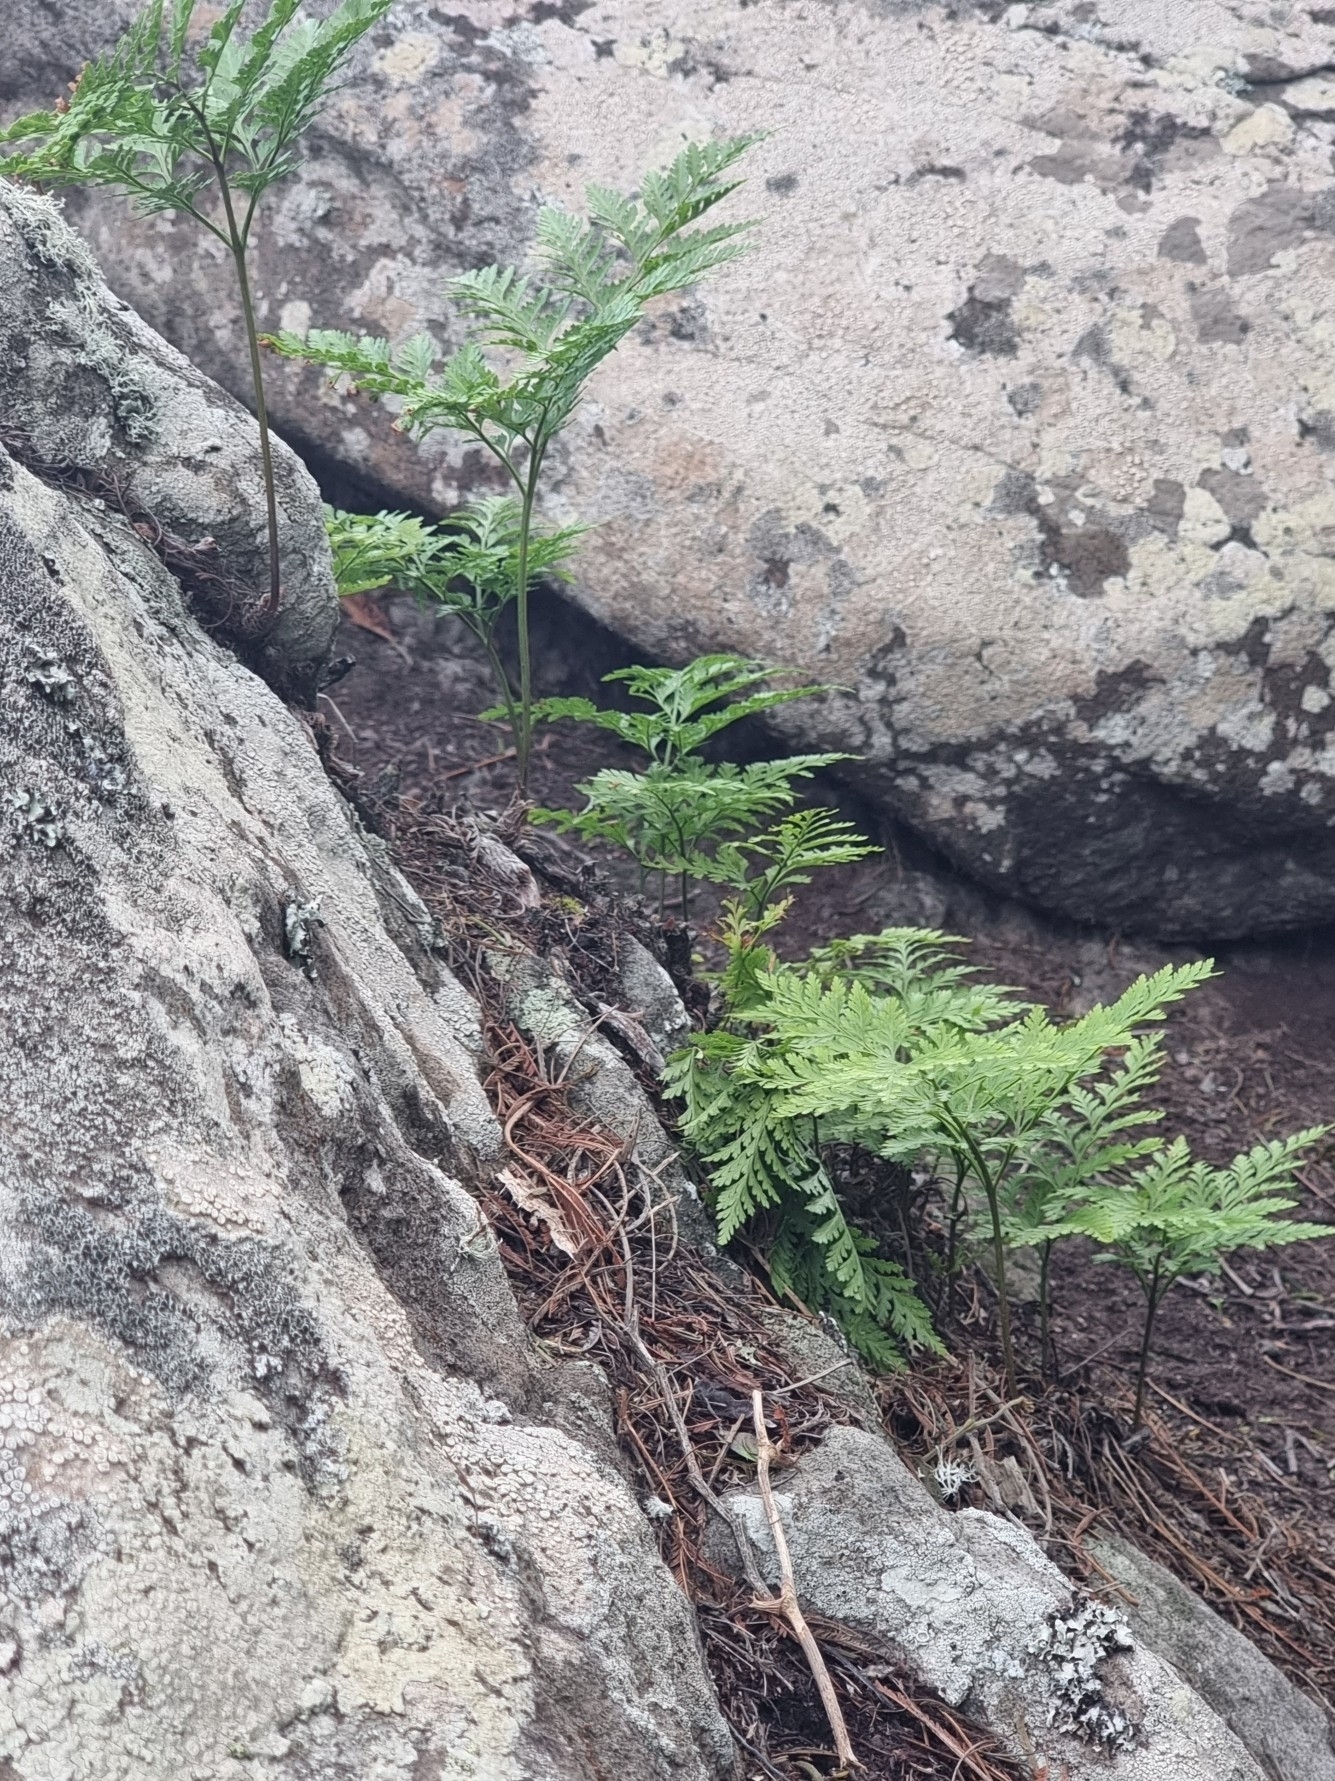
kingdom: Plantae
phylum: Tracheophyta
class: Polypodiopsida
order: Polypodiales
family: Davalliaceae
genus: Davallia
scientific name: Davallia canariensis
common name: Hare's-foot fern
